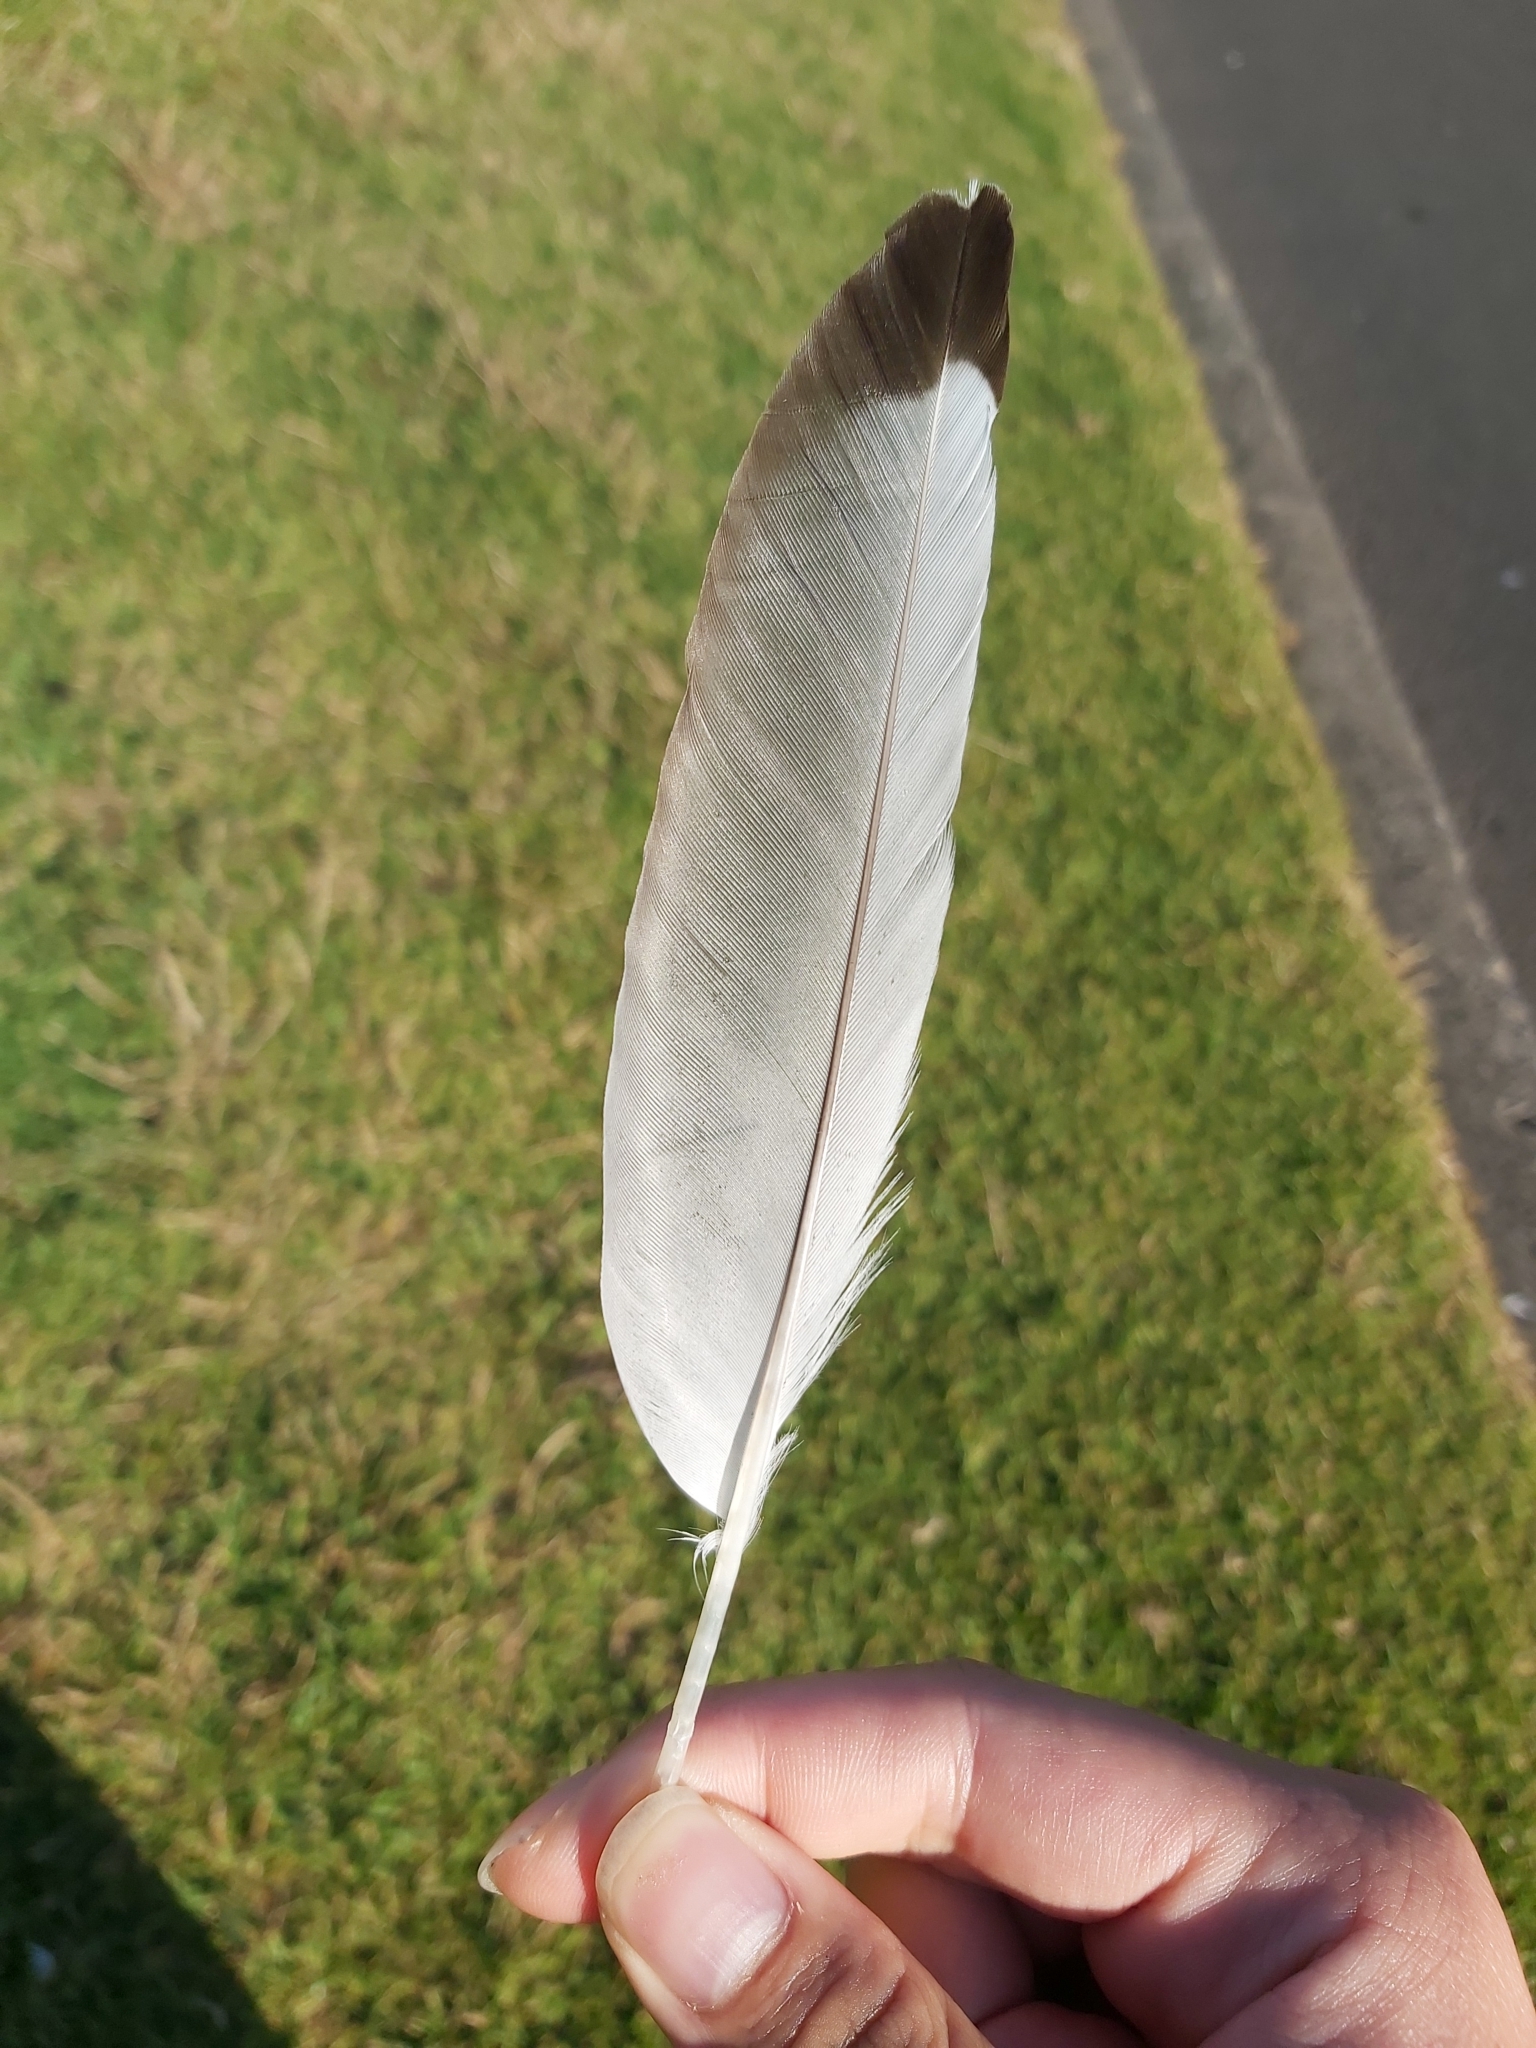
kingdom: Animalia
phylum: Chordata
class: Aves
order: Charadriiformes
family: Laridae
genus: Chroicocephalus
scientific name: Chroicocephalus novaehollandiae
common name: Silver gull
